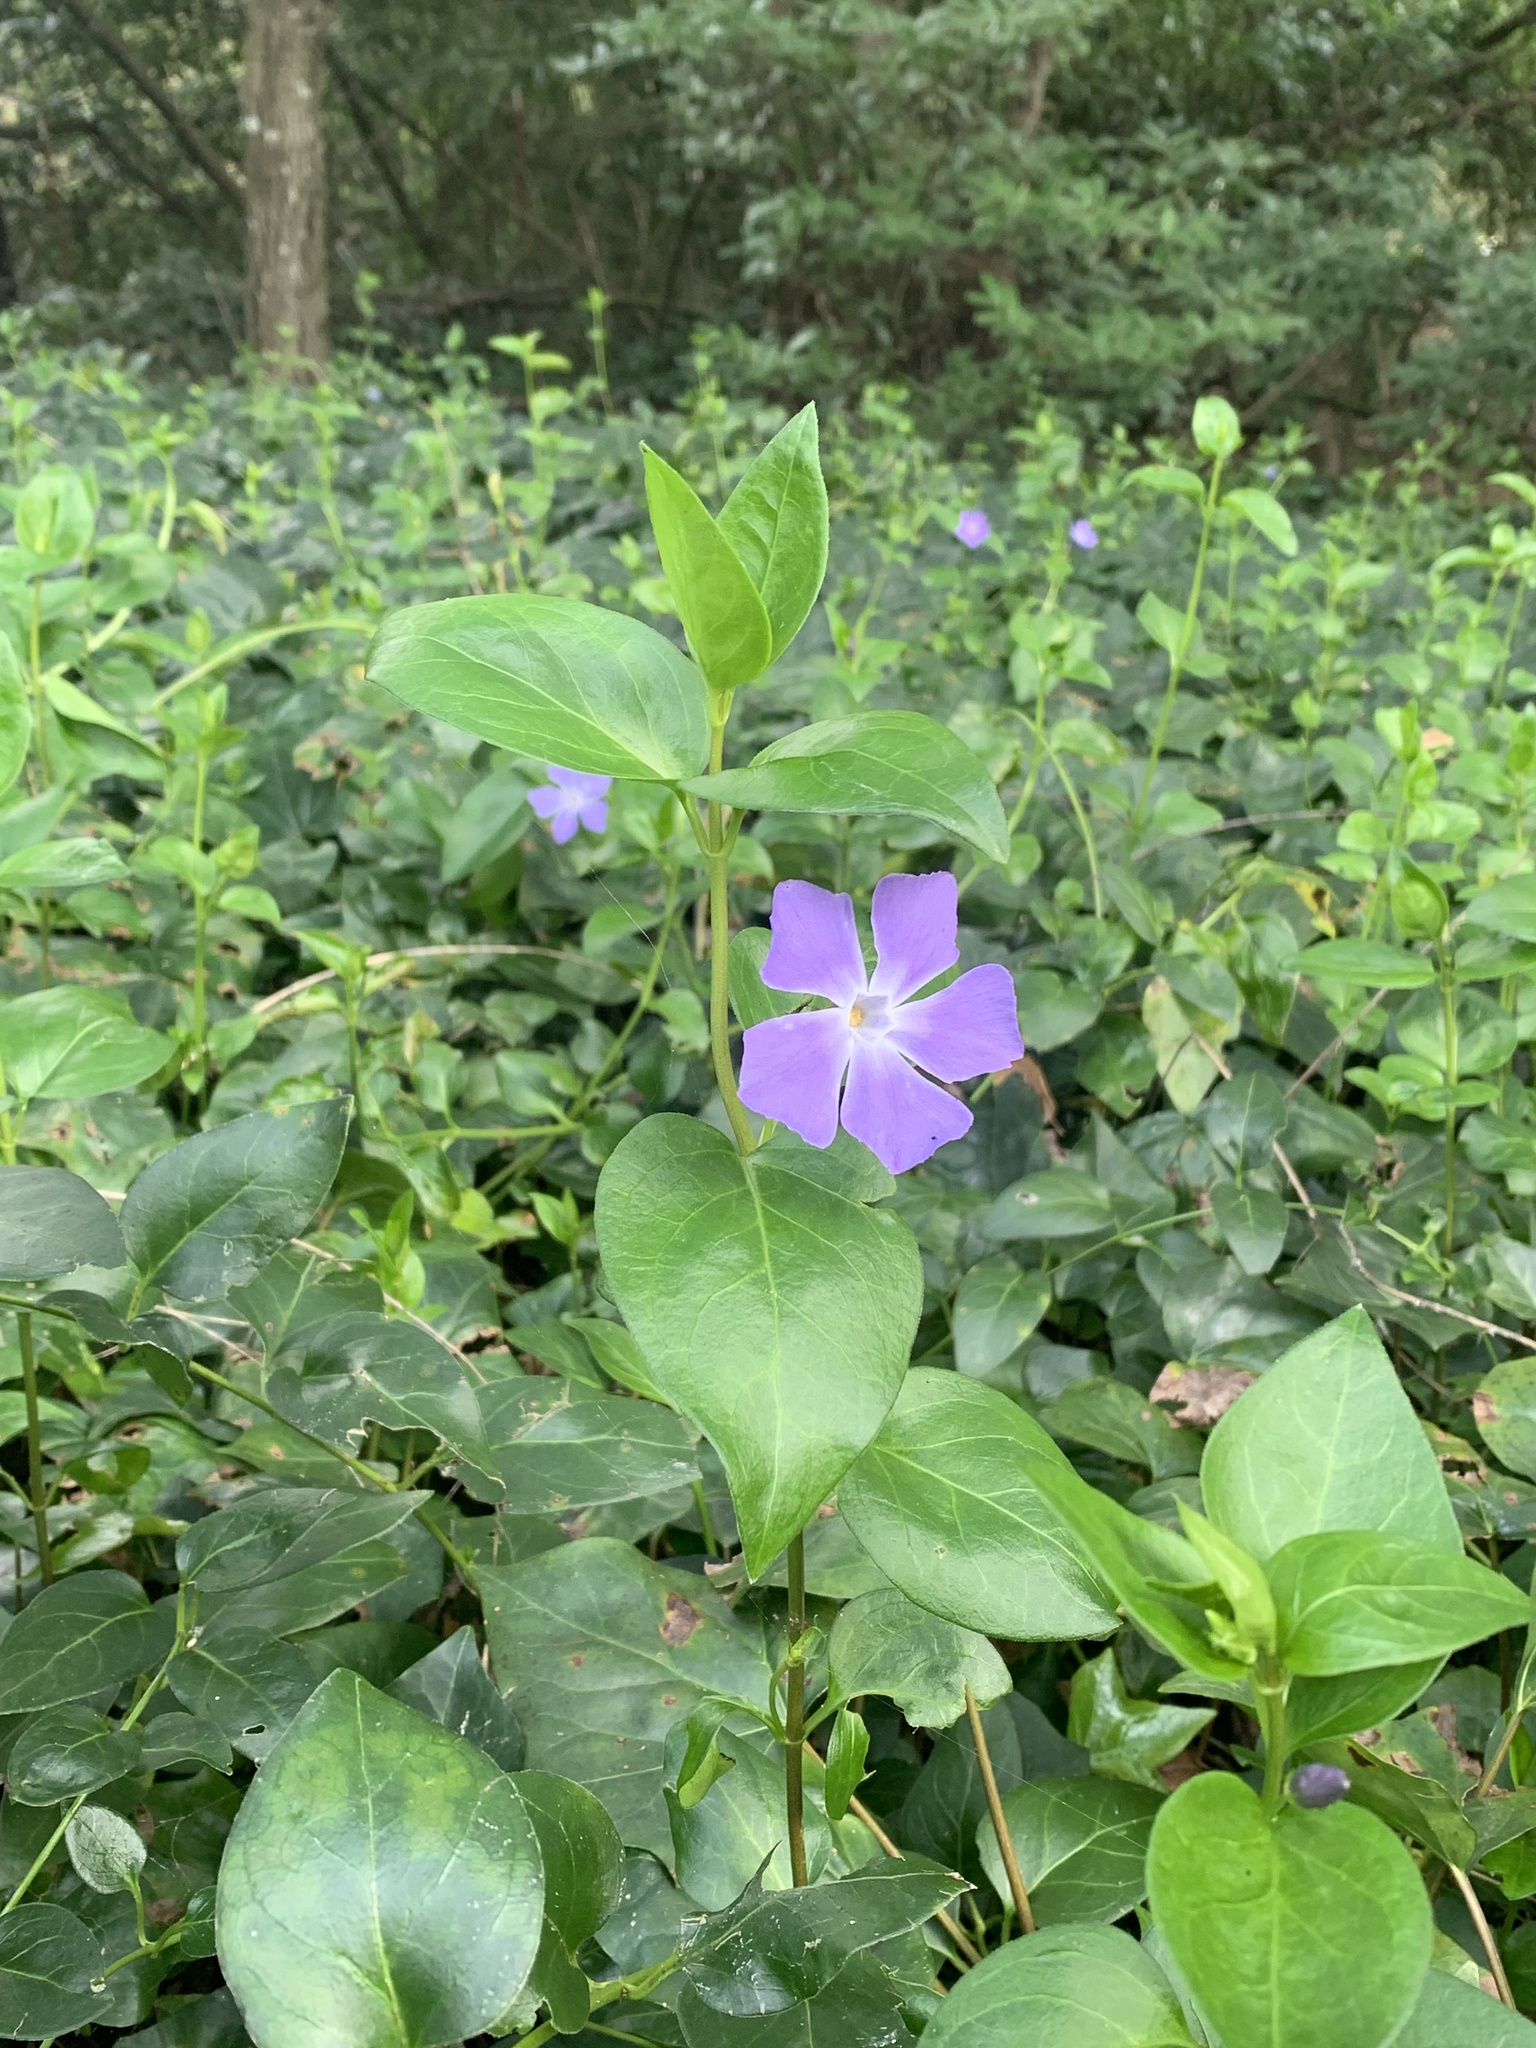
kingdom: Plantae
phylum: Tracheophyta
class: Magnoliopsida
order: Gentianales
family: Apocynaceae
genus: Vinca
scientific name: Vinca major
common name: Greater periwinkle
